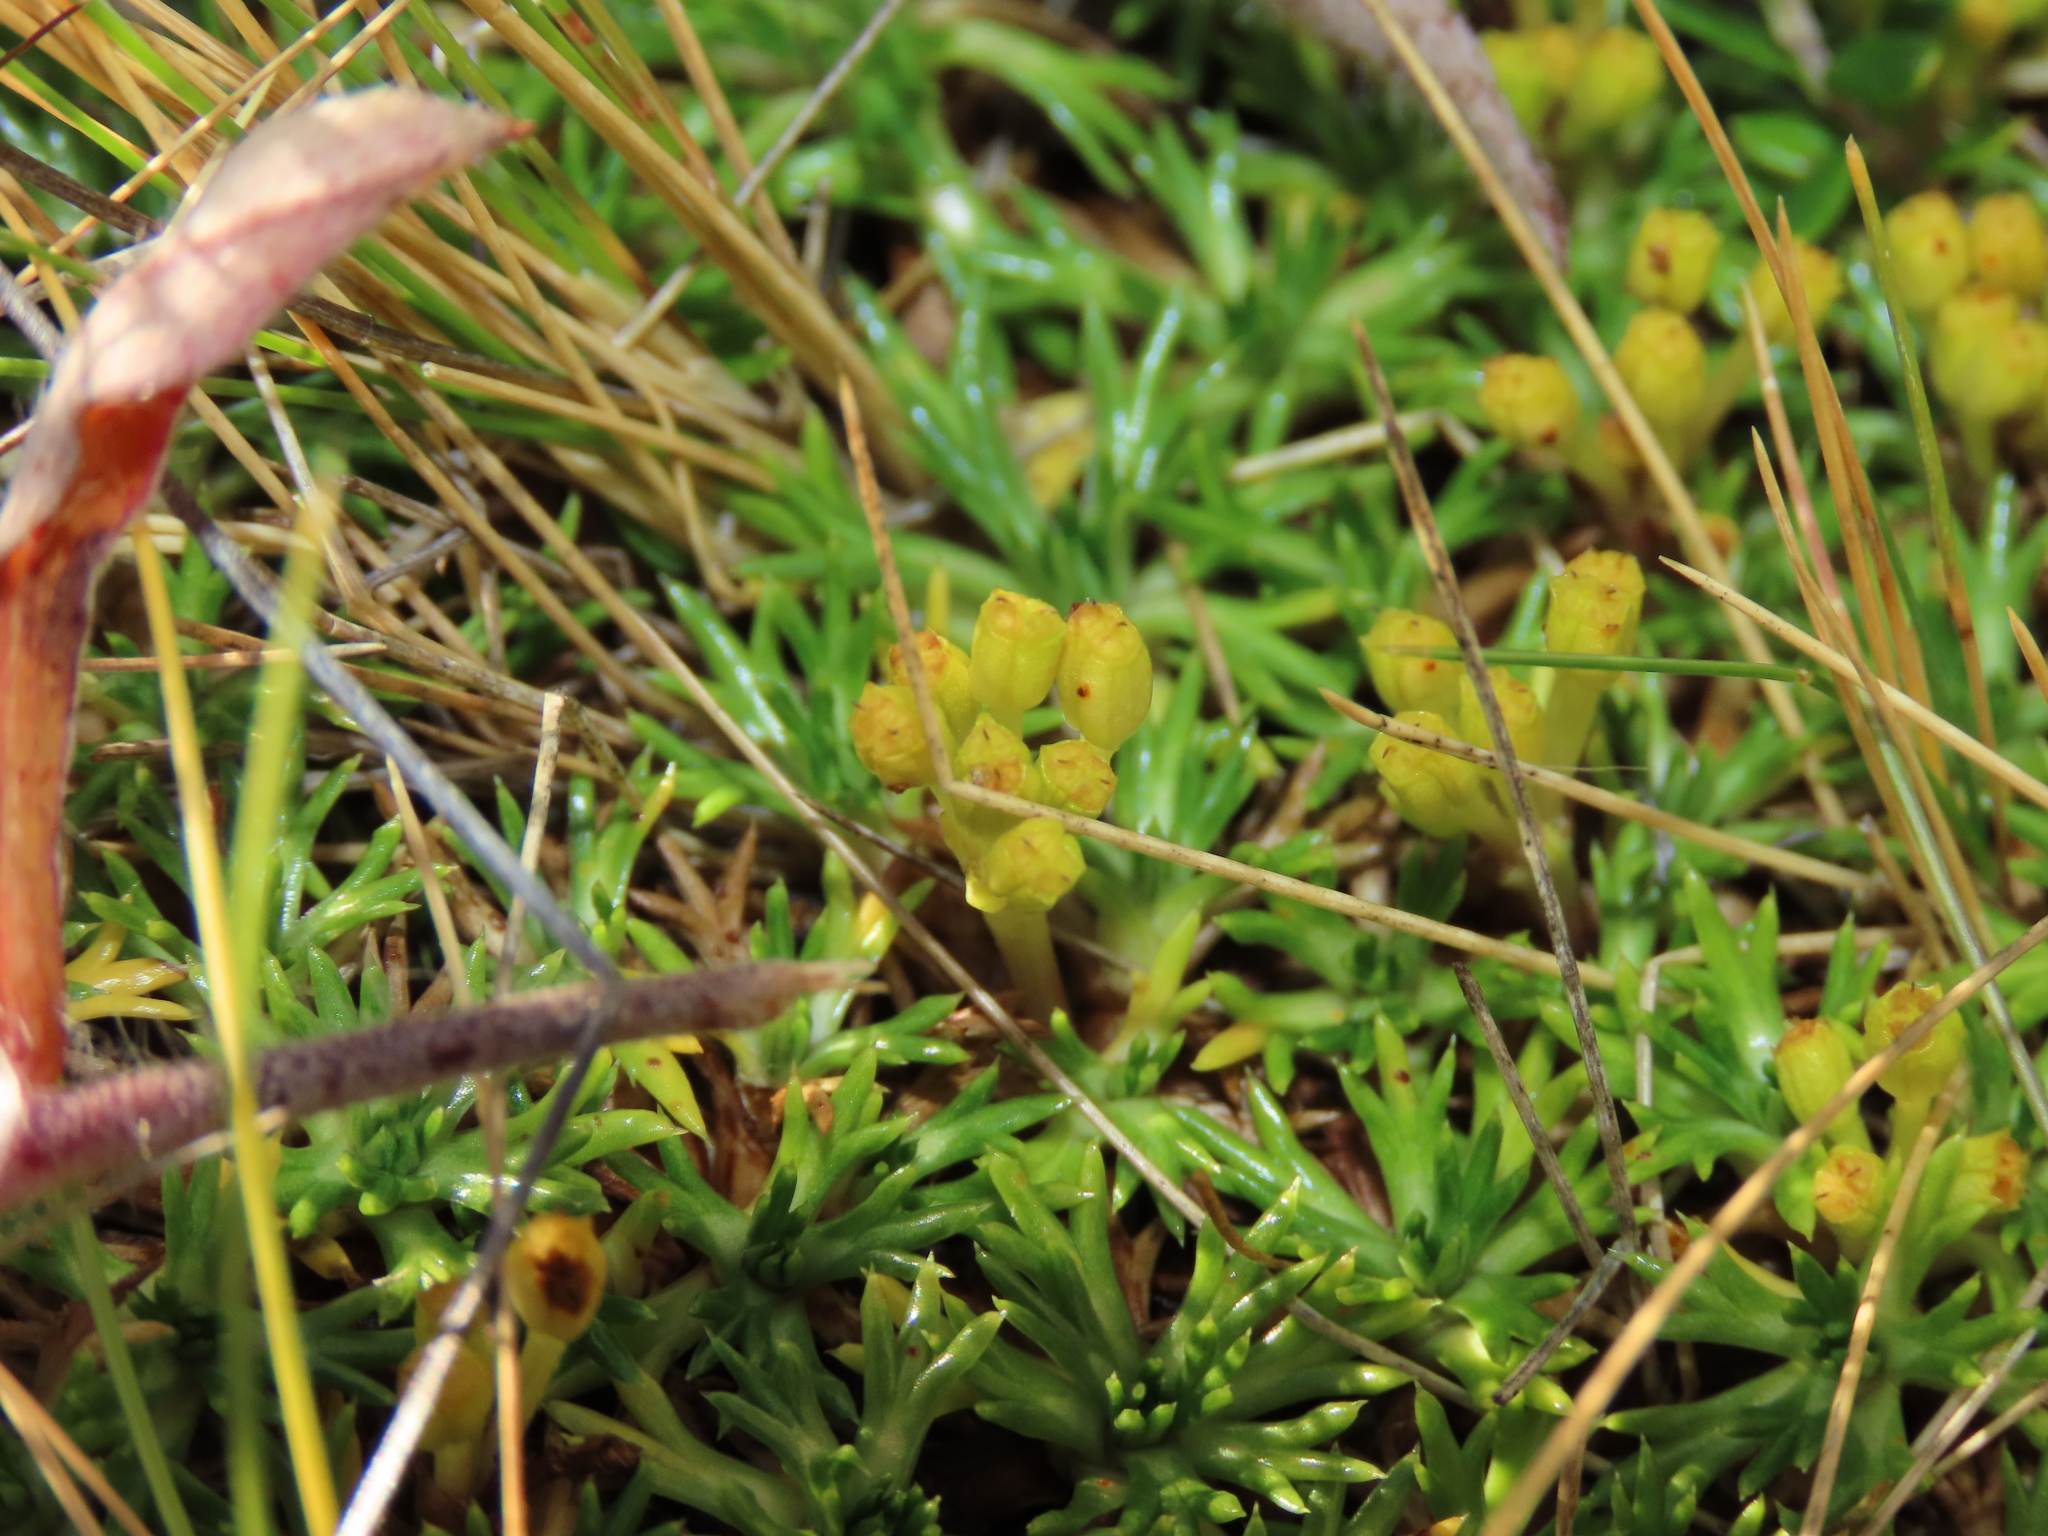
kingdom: Plantae
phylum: Tracheophyta
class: Magnoliopsida
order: Apiales
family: Apiaceae
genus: Azorella
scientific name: Azorella trifurcata
